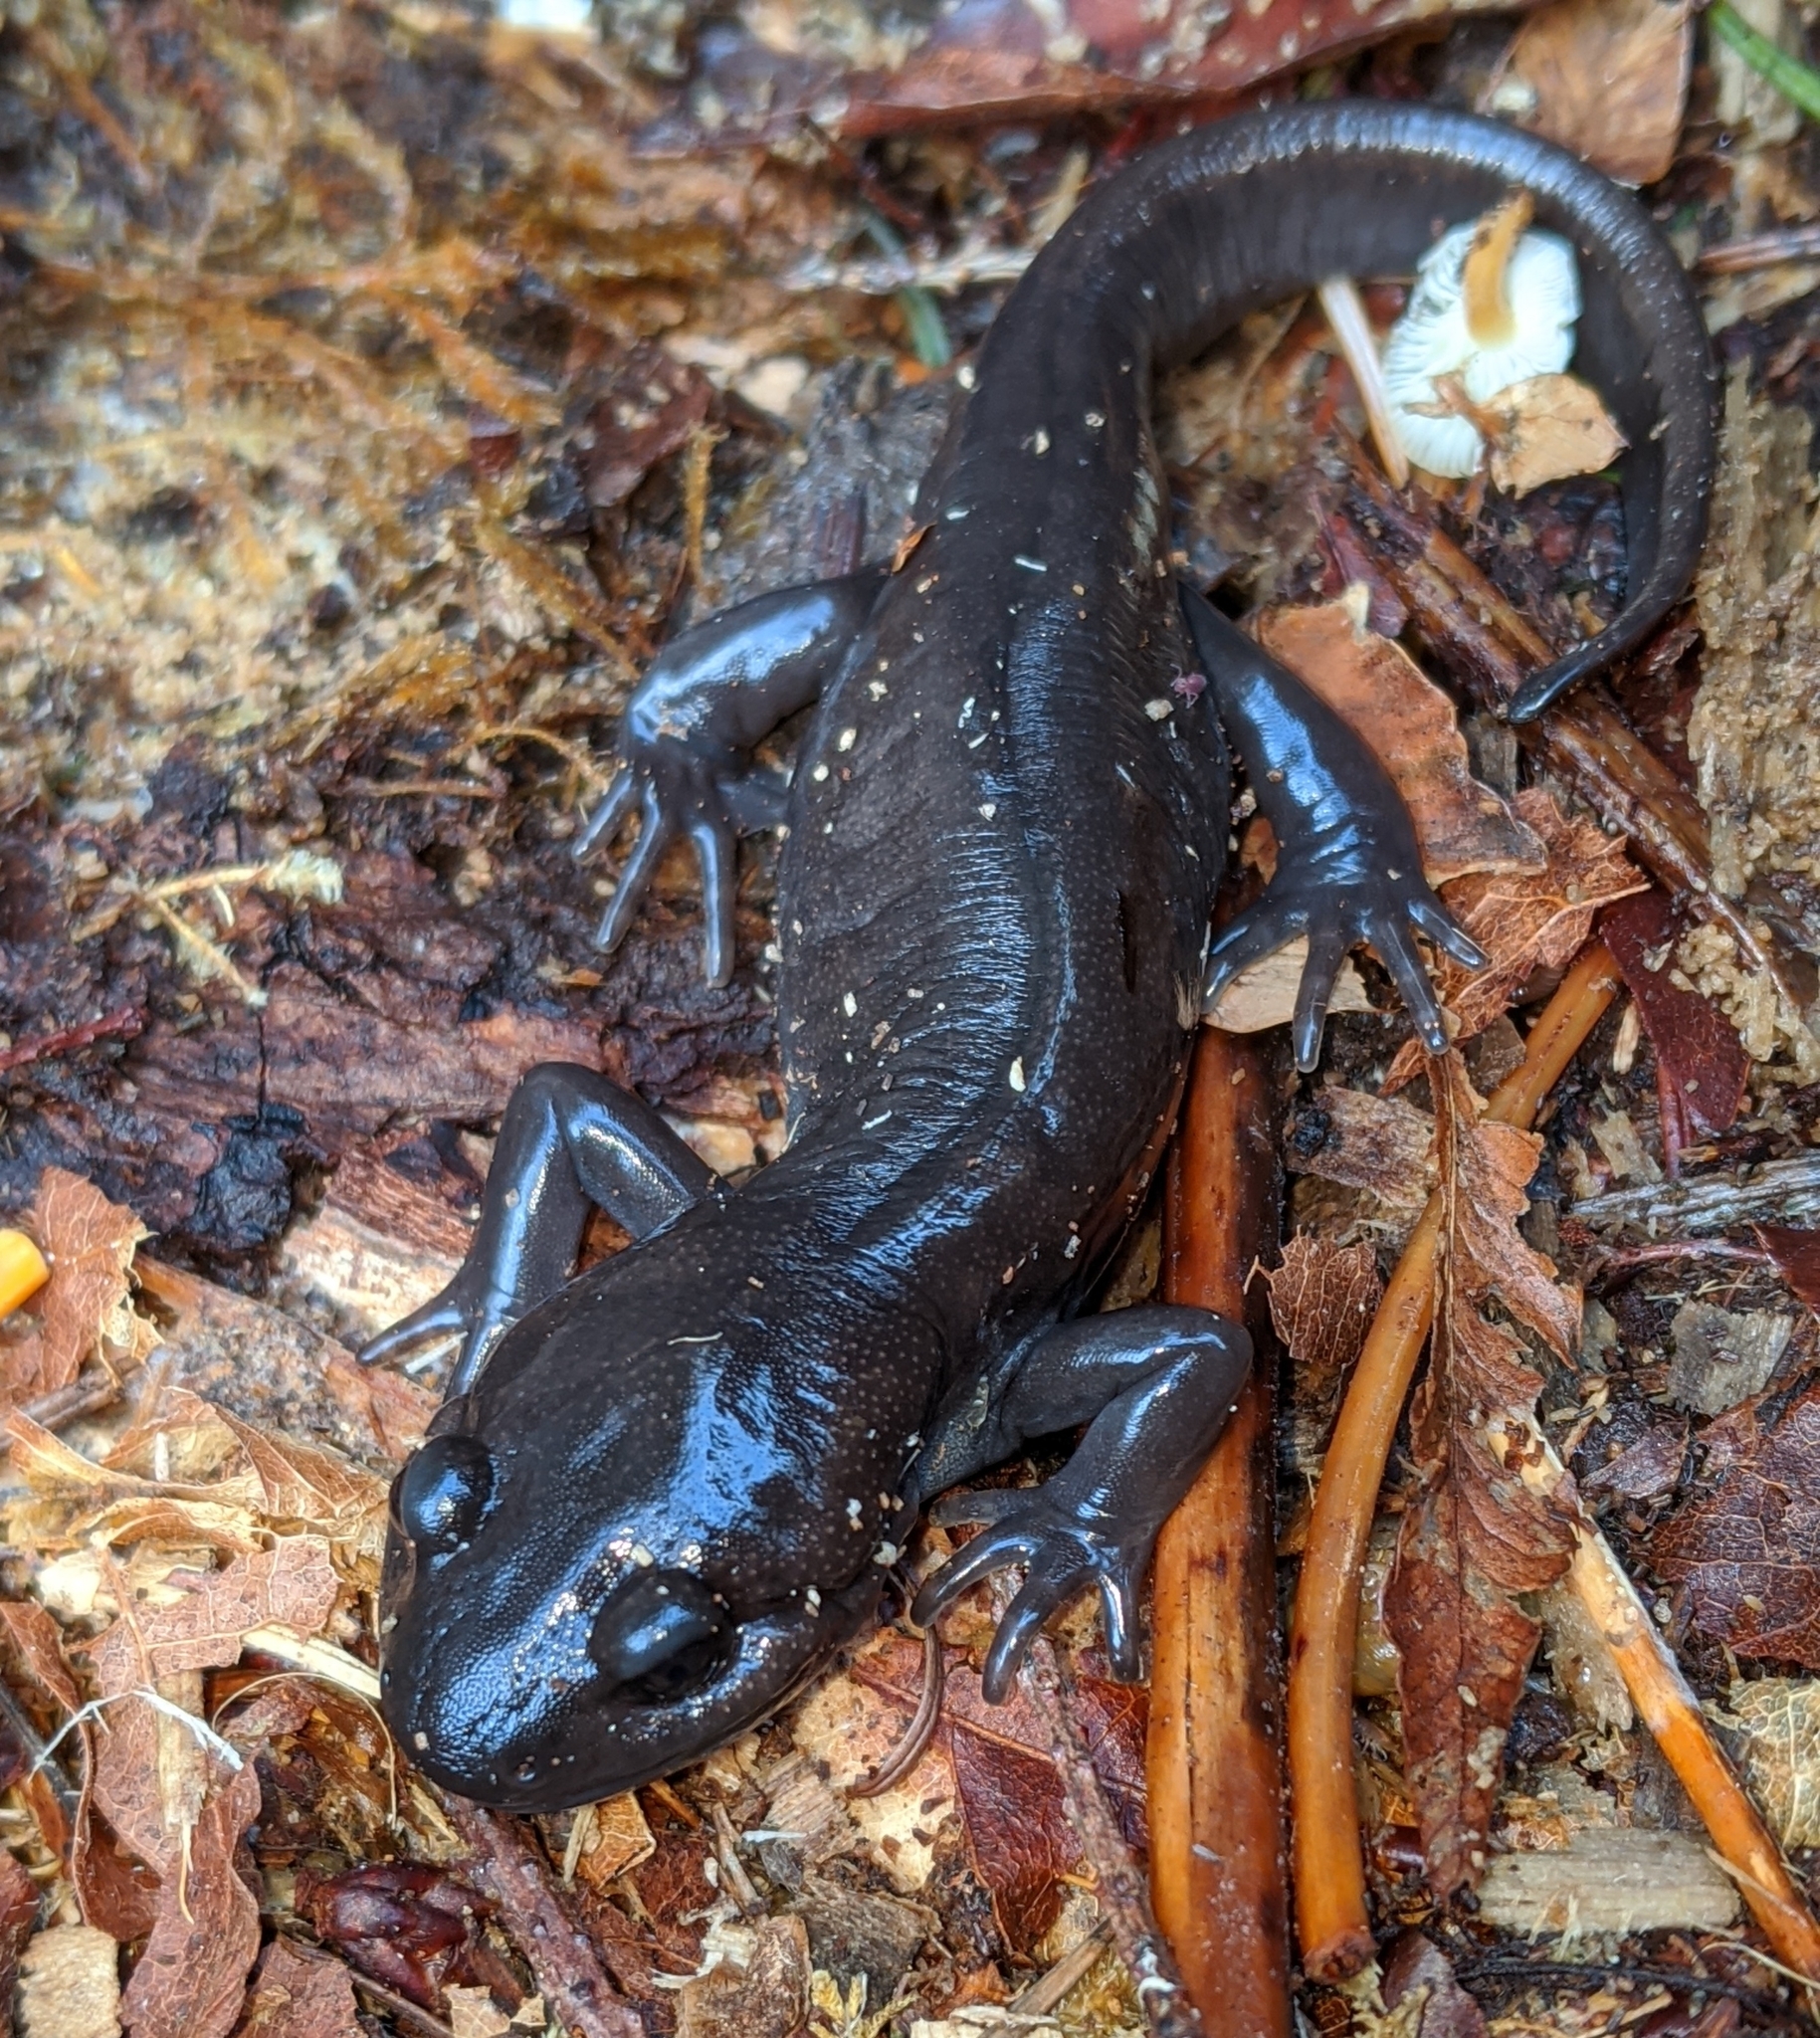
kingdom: Animalia
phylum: Chordata
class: Amphibia
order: Caudata
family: Ambystomatidae
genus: Ambystoma
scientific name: Ambystoma gracile
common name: Northwestern salamander
